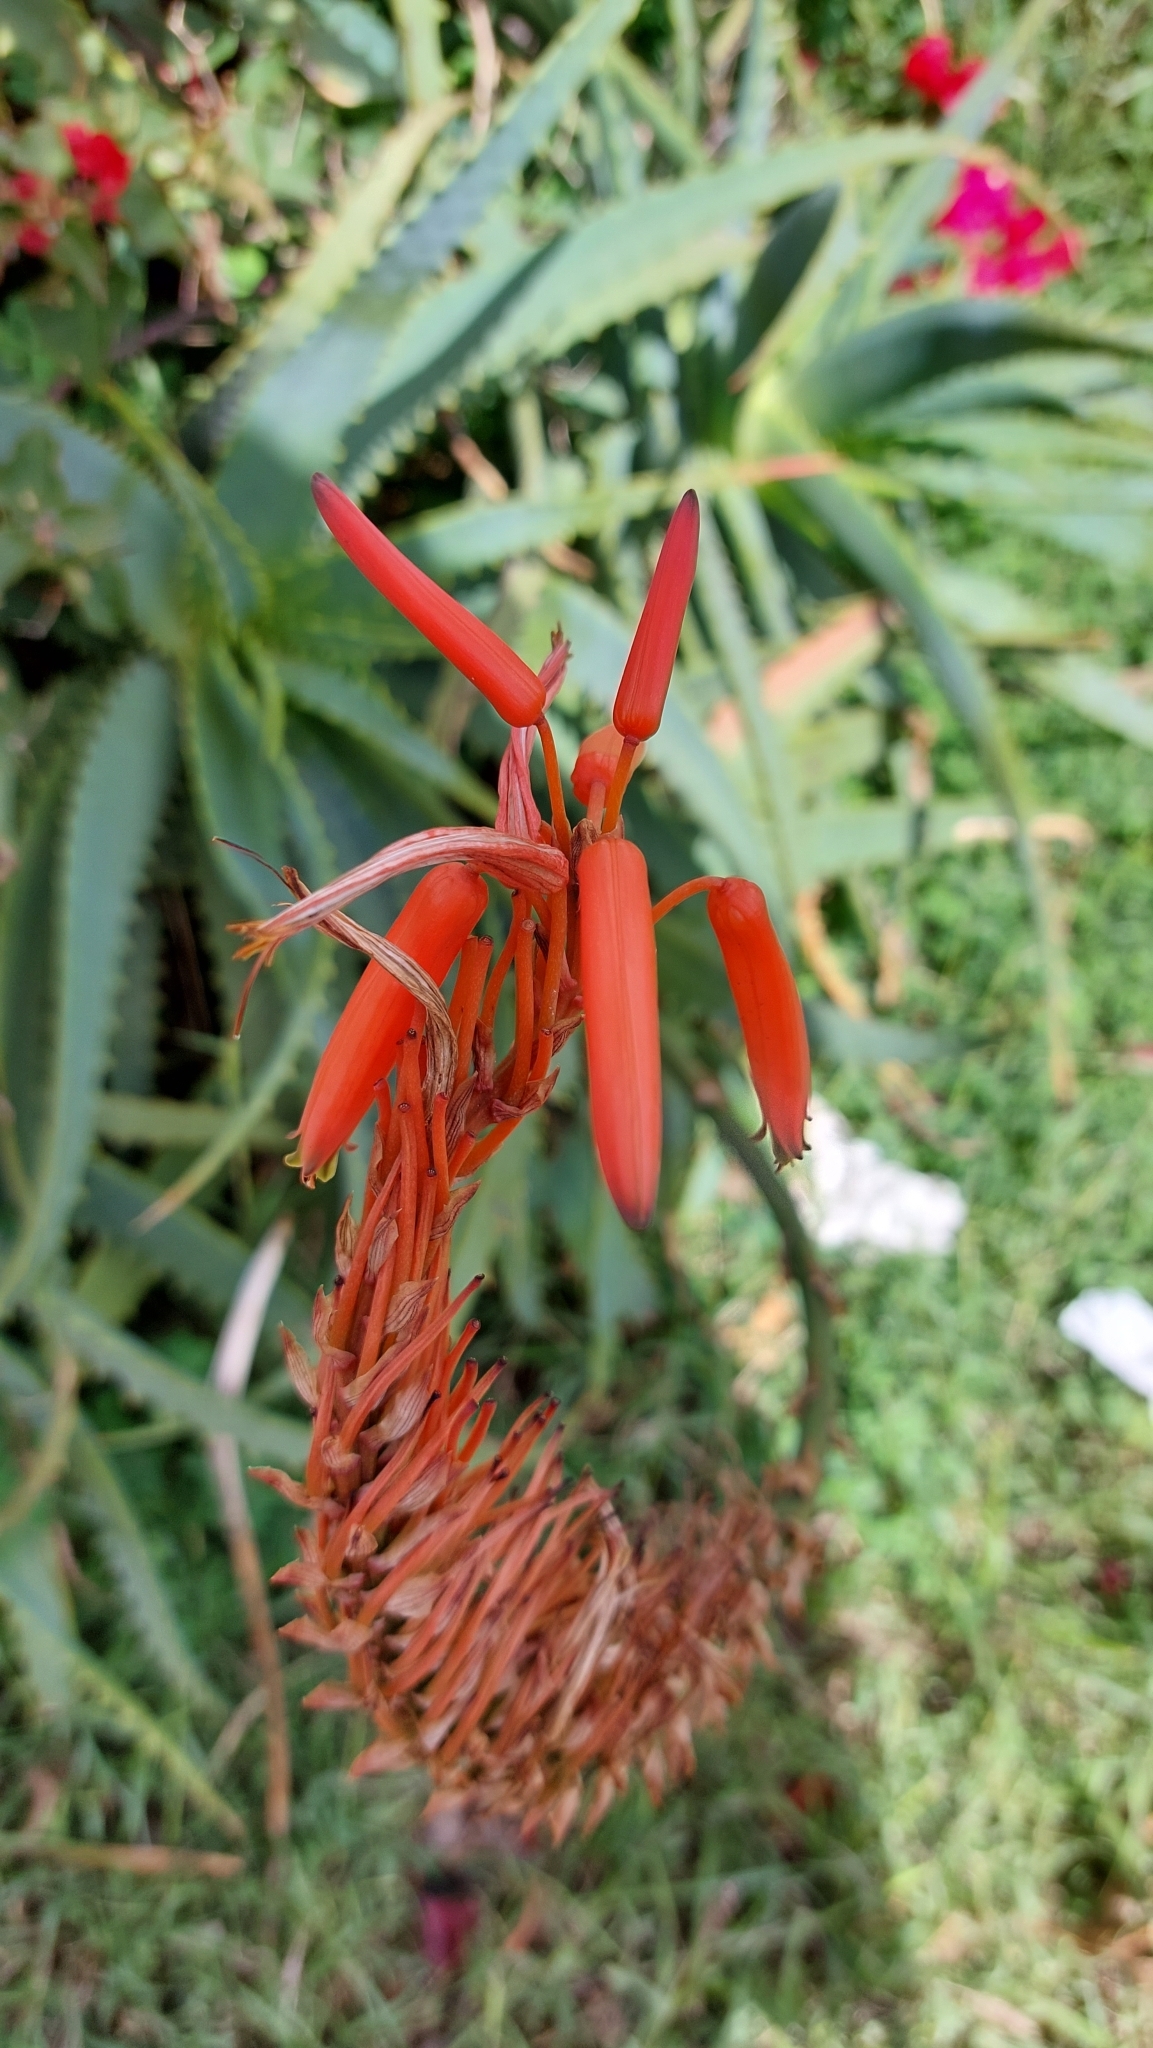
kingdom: Plantae
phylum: Tracheophyta
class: Liliopsida
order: Asparagales
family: Asphodelaceae
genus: Aloe
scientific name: Aloe arborescens
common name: Candelabra aloe
